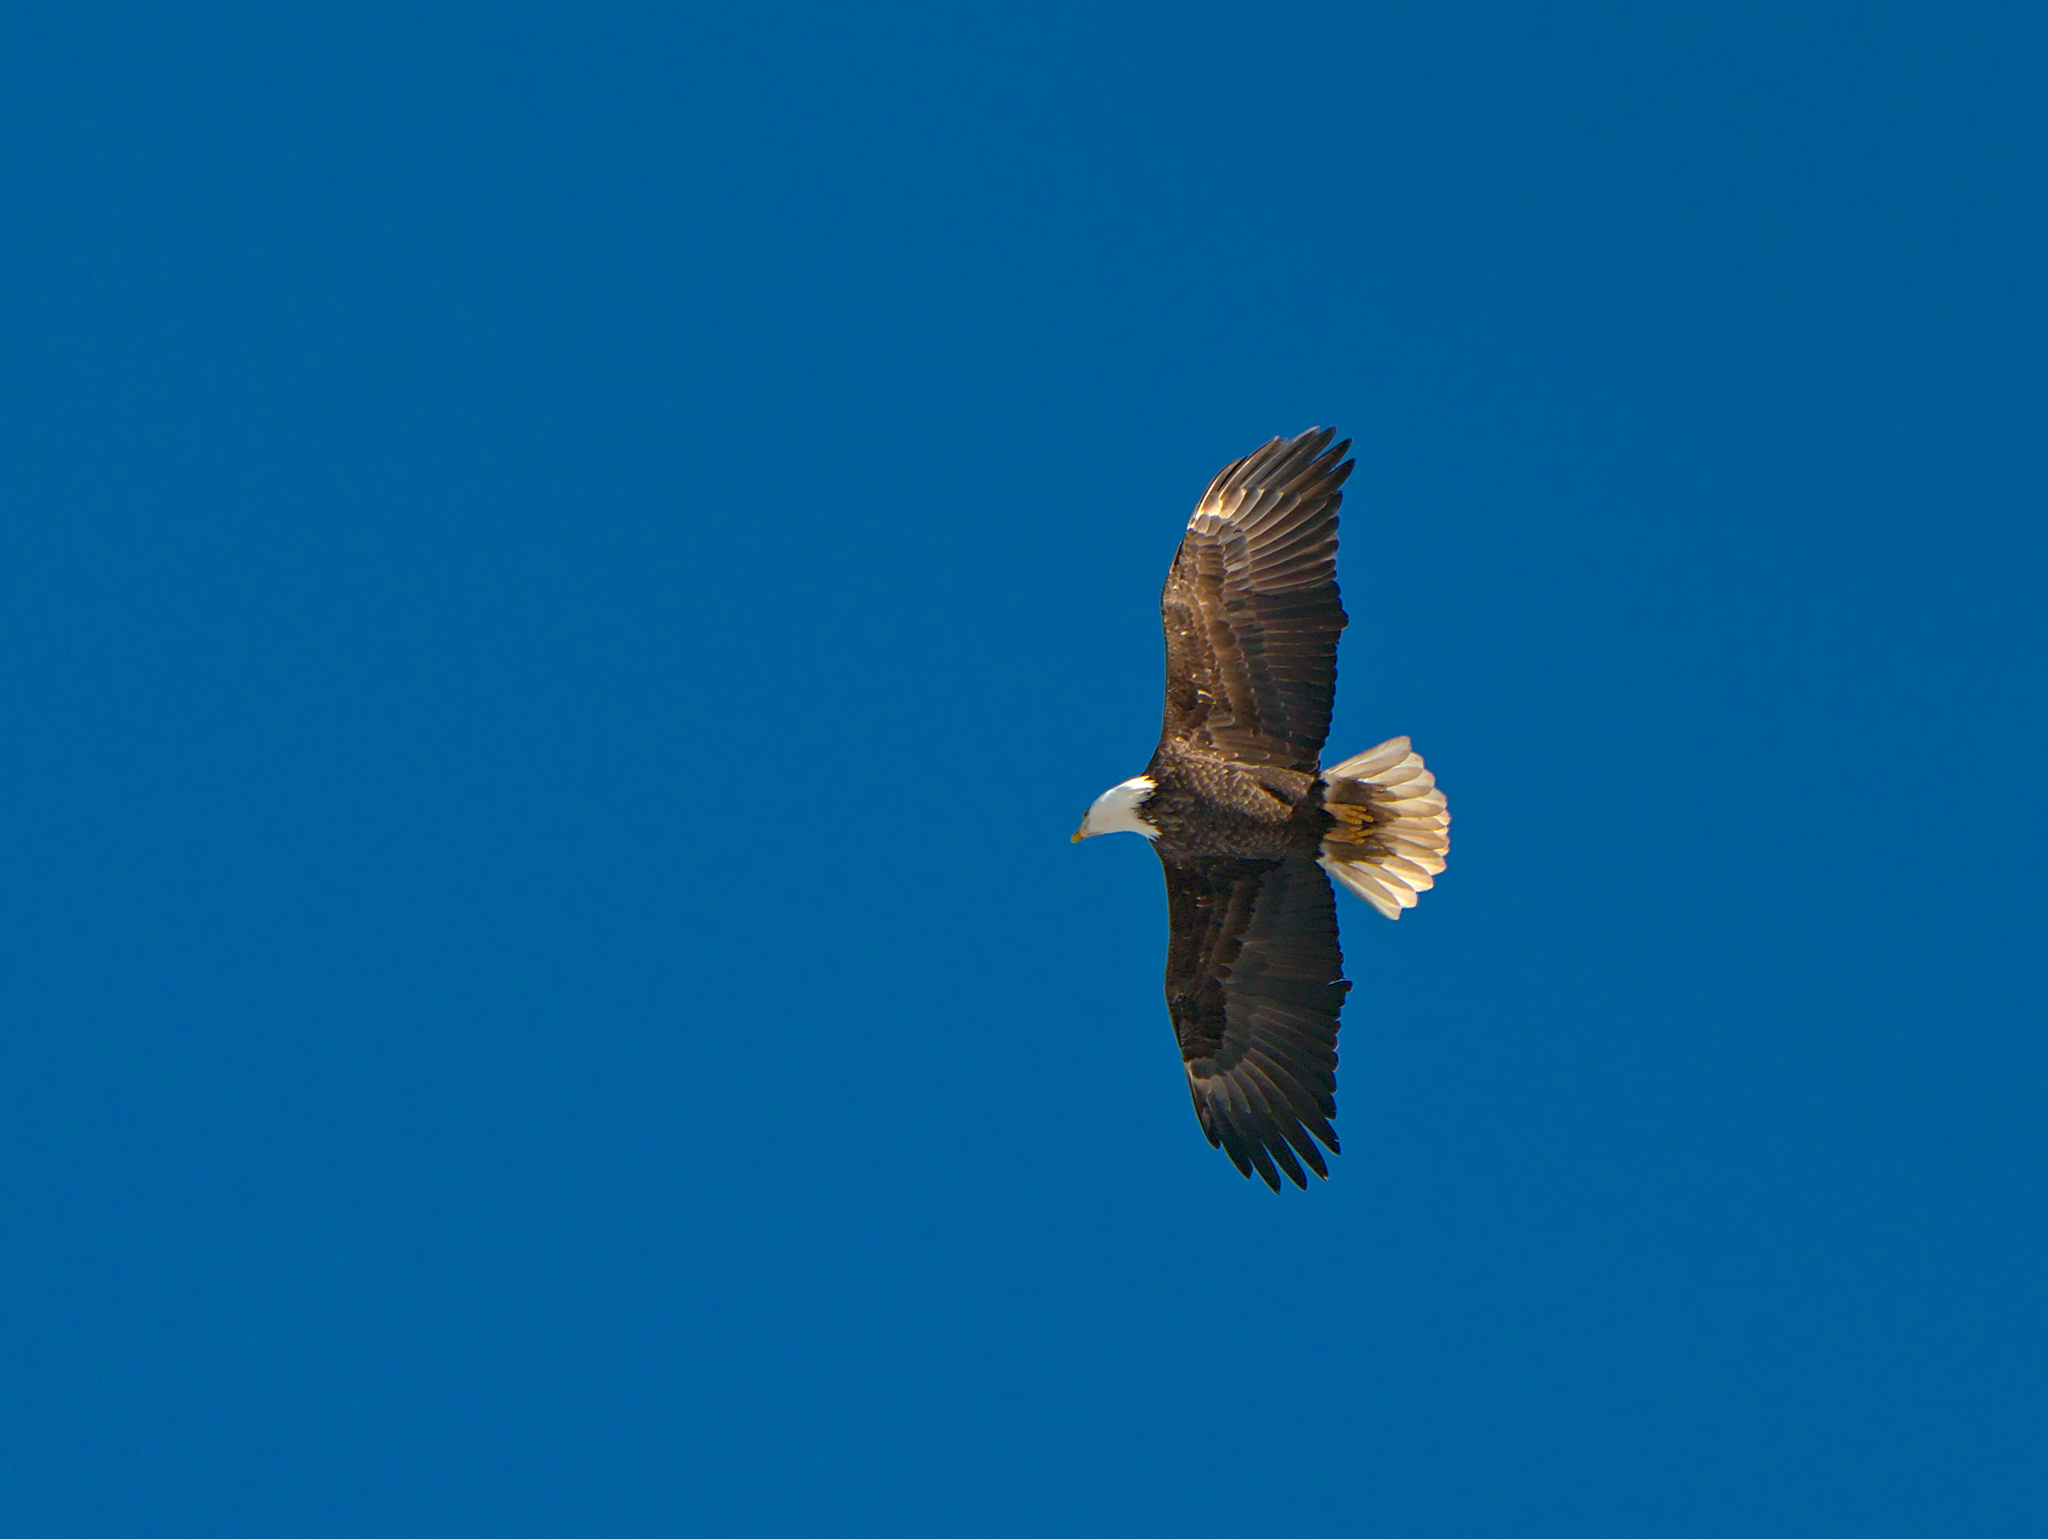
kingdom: Animalia
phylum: Chordata
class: Aves
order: Accipitriformes
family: Accipitridae
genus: Haliaeetus
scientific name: Haliaeetus leucocephalus
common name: Bald eagle
